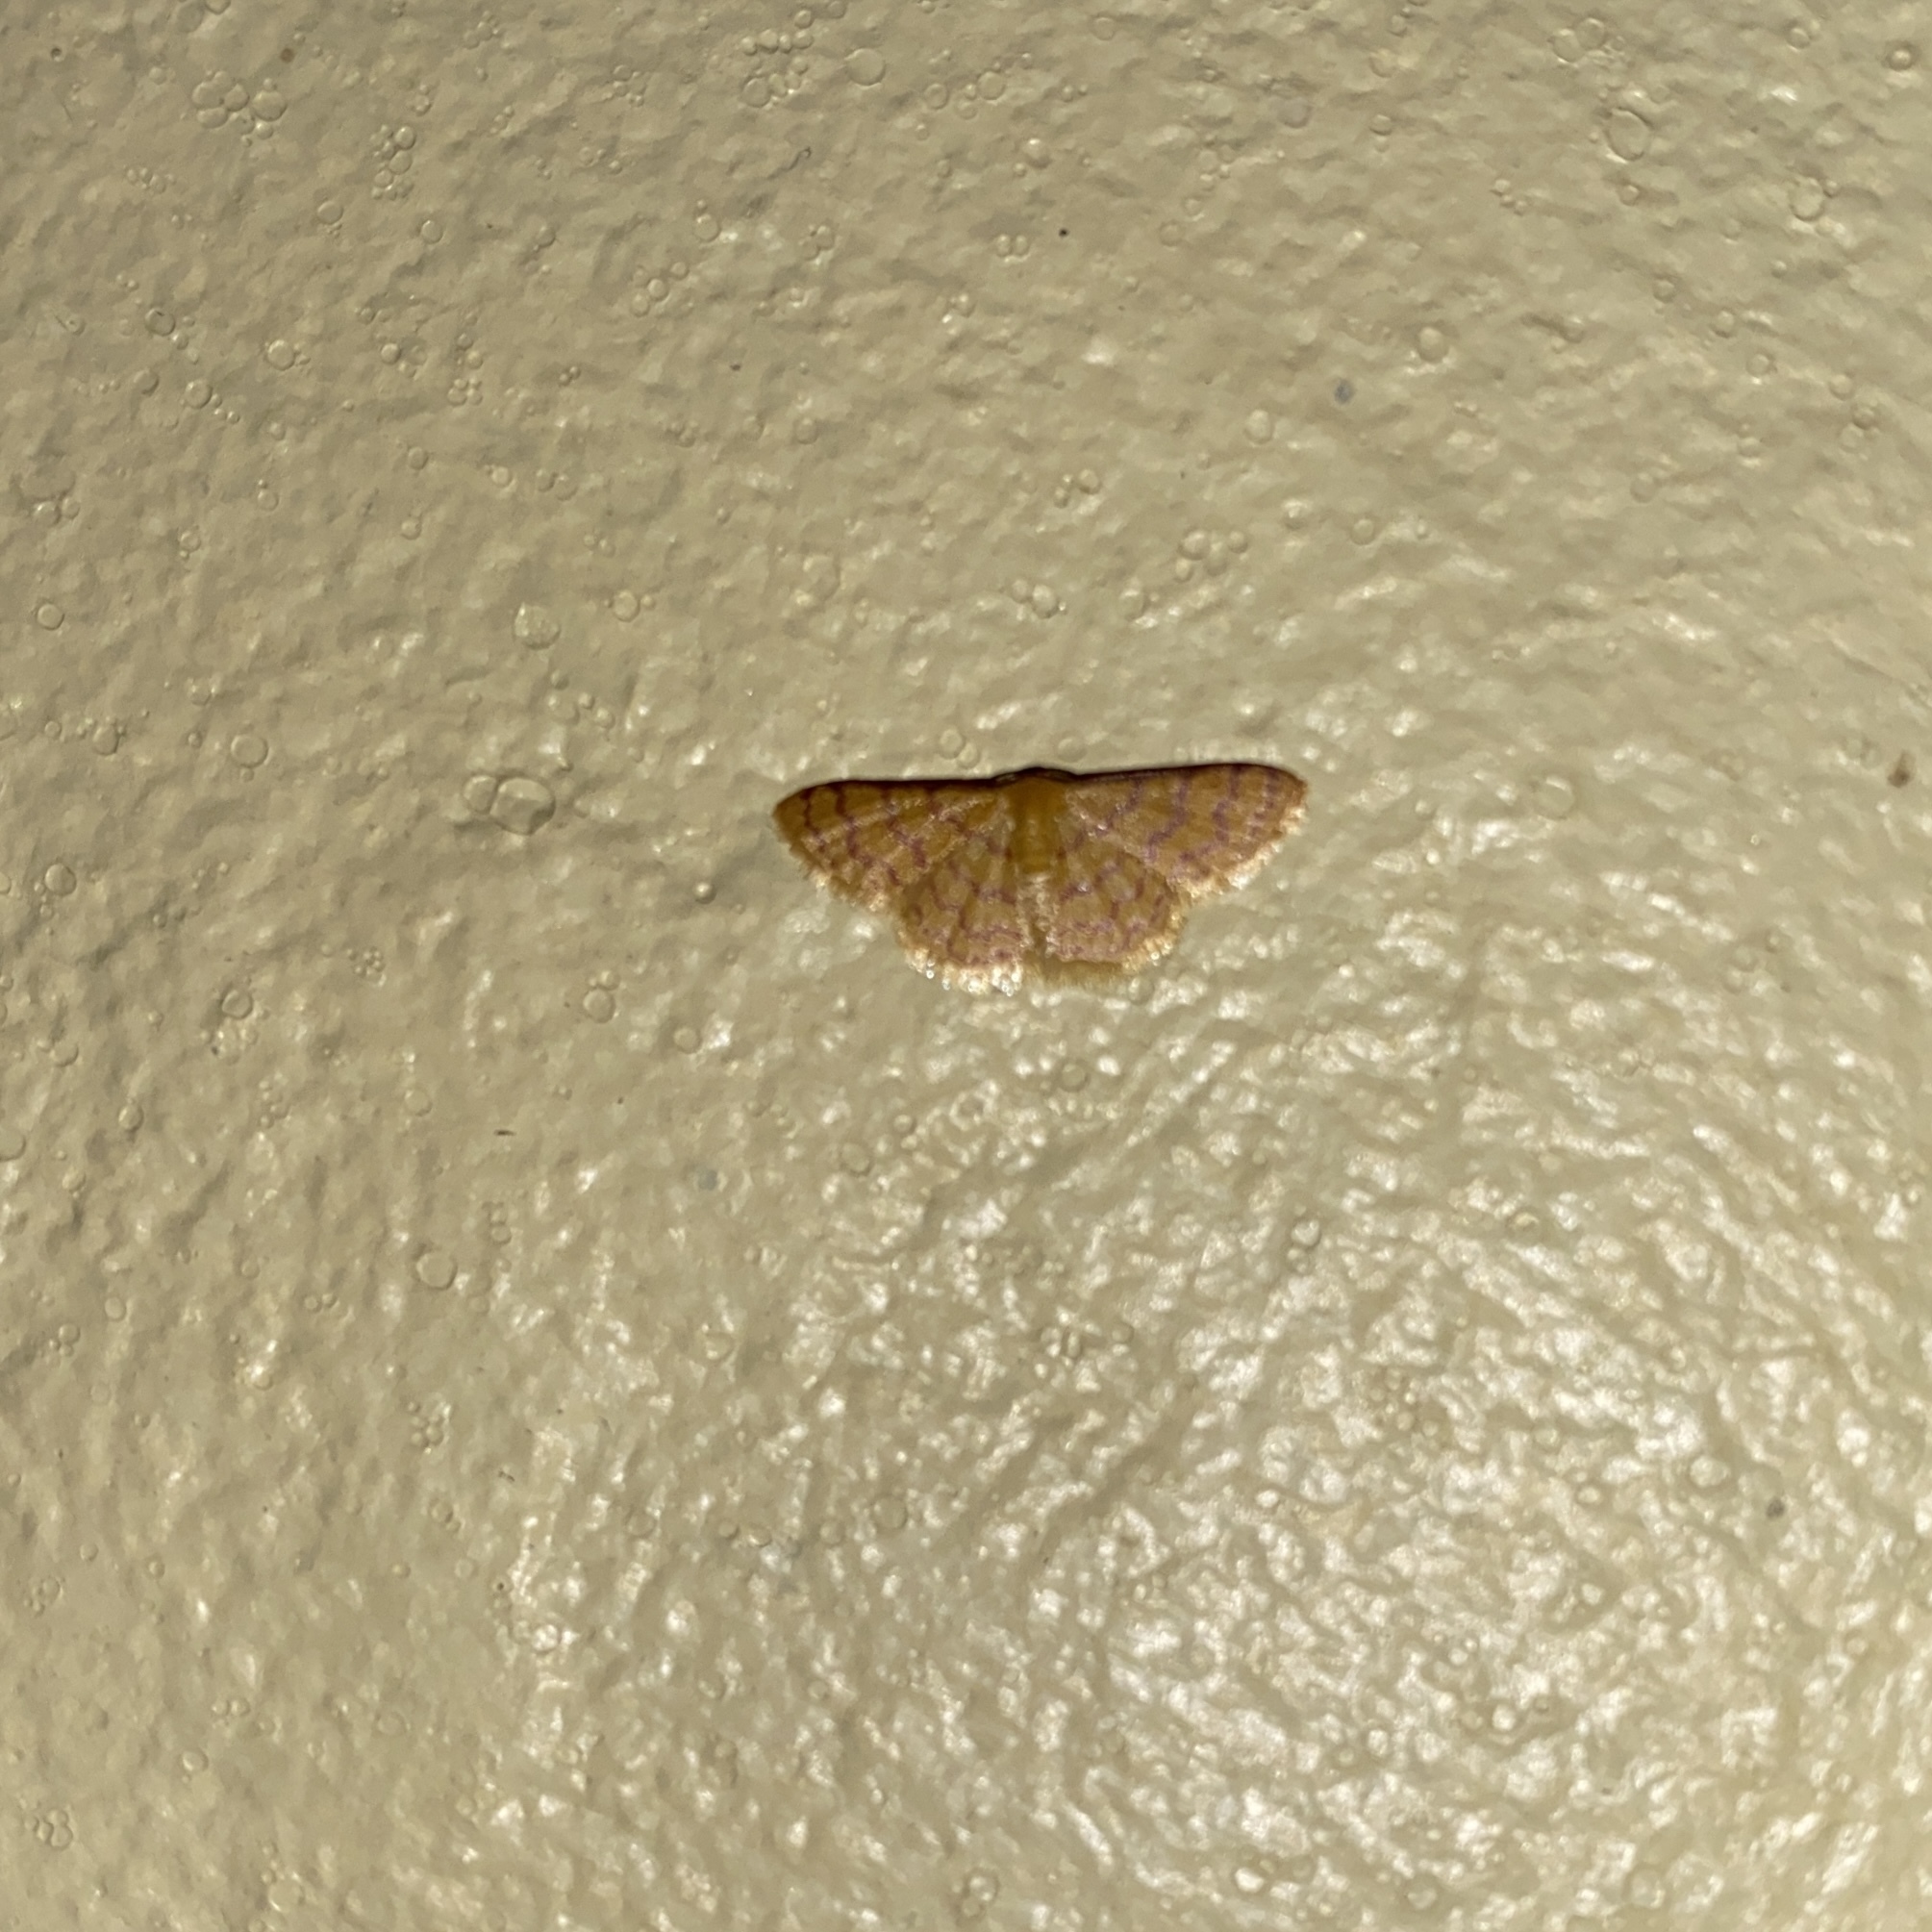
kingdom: Animalia
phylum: Arthropoda
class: Insecta
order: Lepidoptera
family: Geometridae
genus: Tricentrogyna
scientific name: Tricentrogyna deportata
